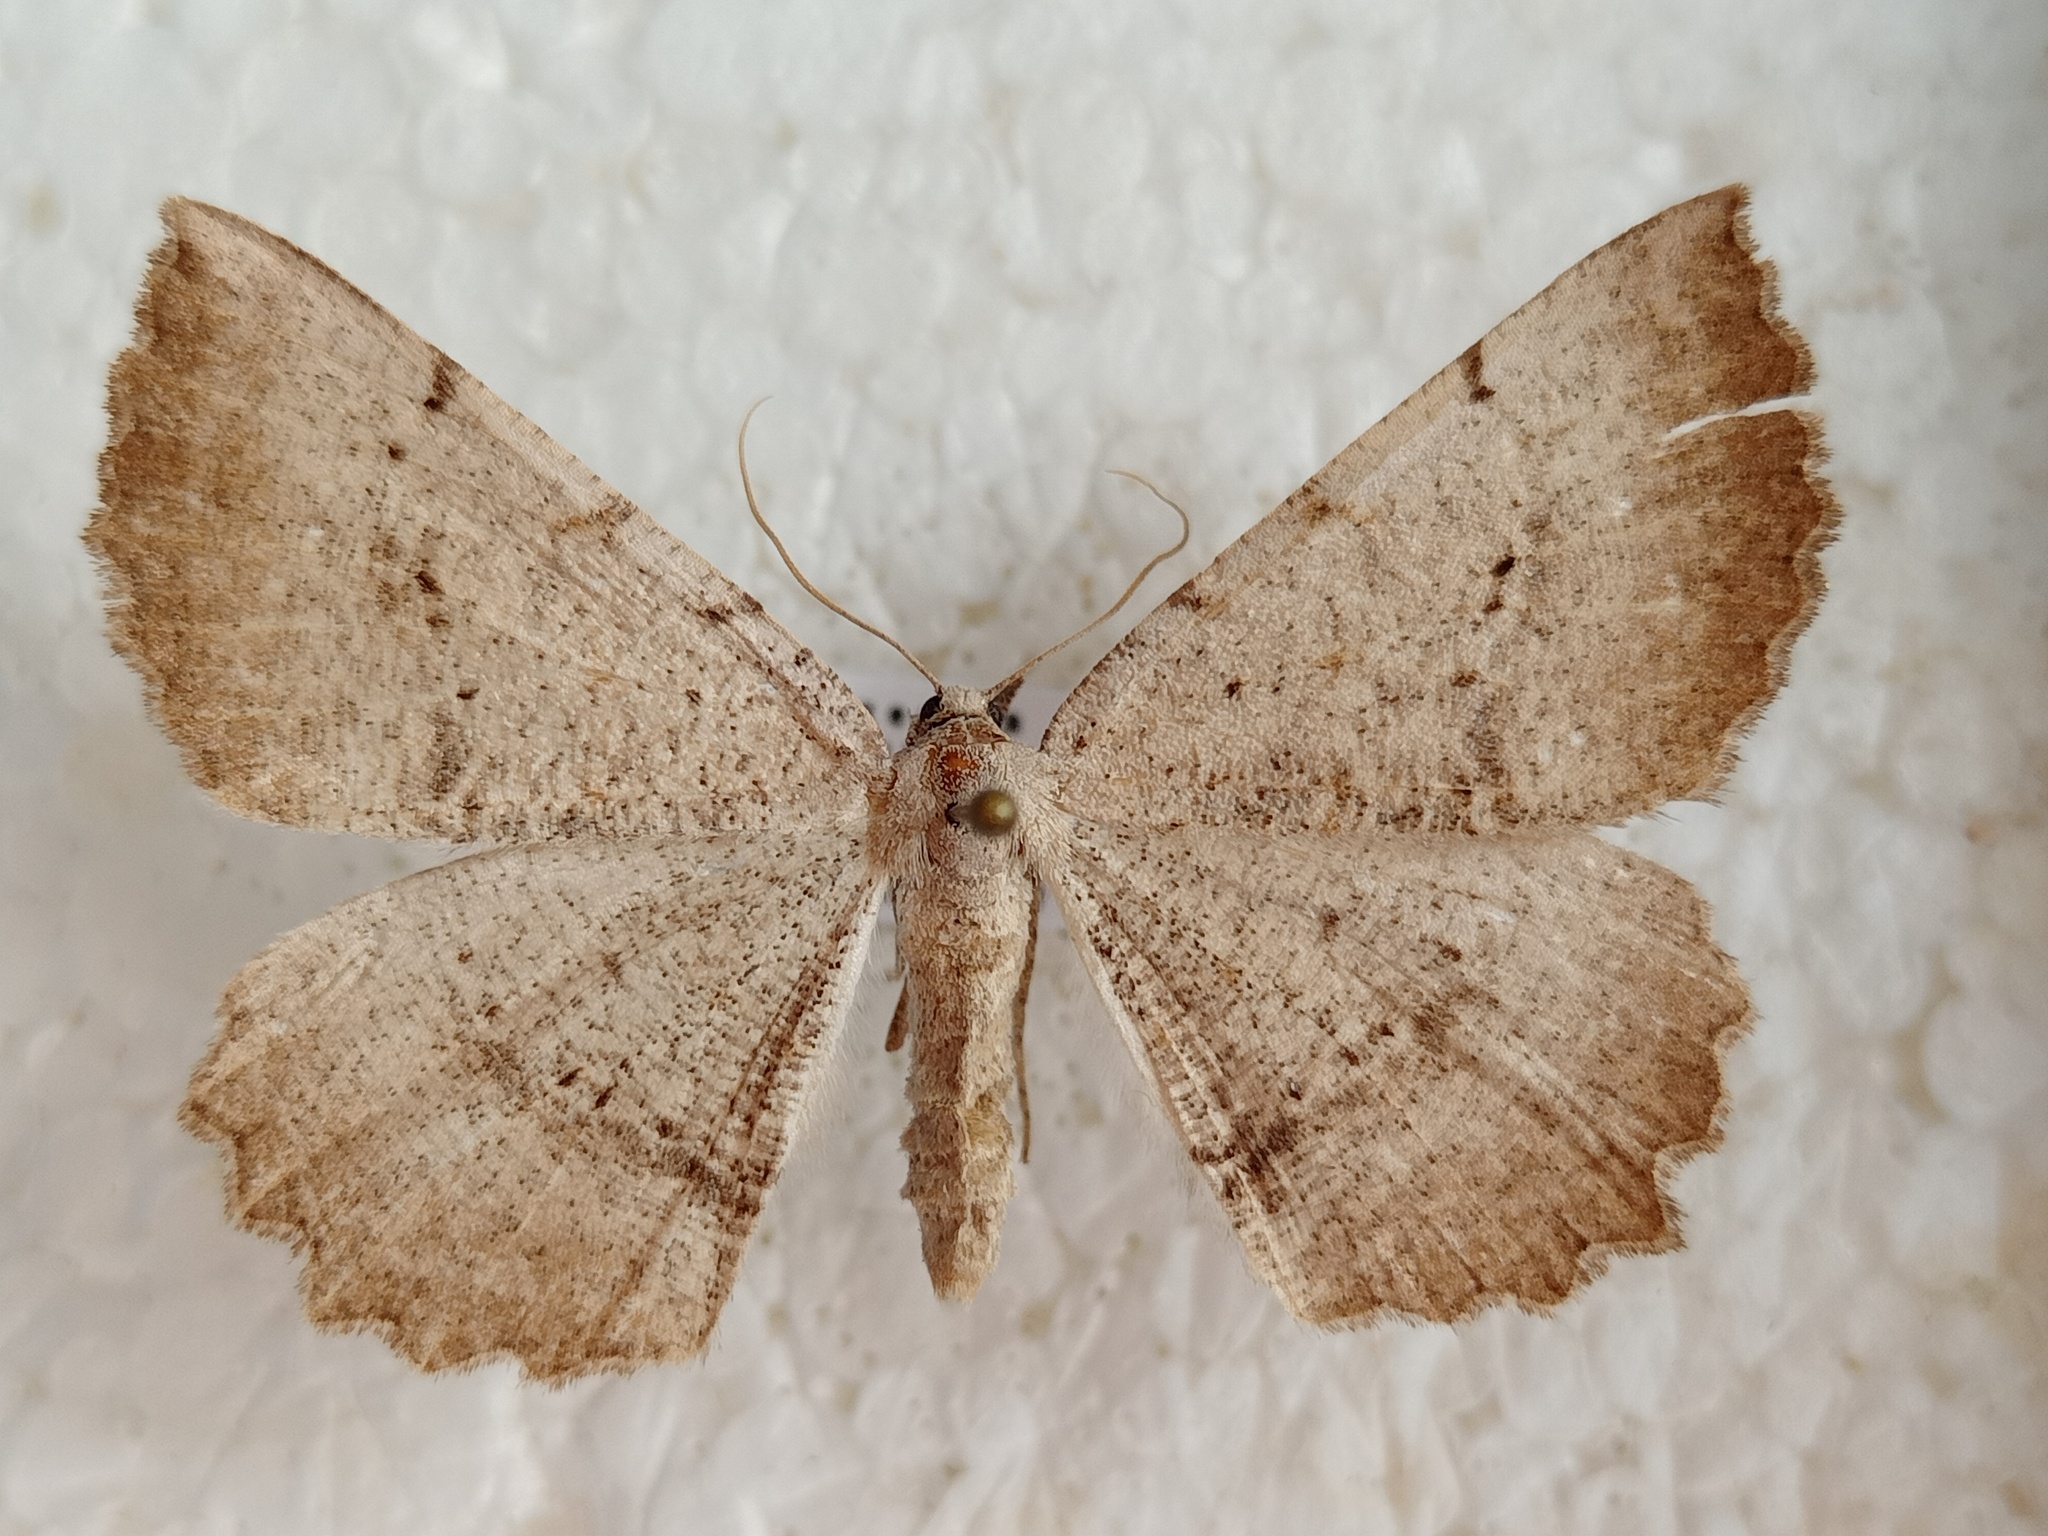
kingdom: Animalia
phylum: Arthropoda
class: Insecta
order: Lepidoptera
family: Geometridae
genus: Odontognophos
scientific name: Odontognophos dumetata
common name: Irish annulet
